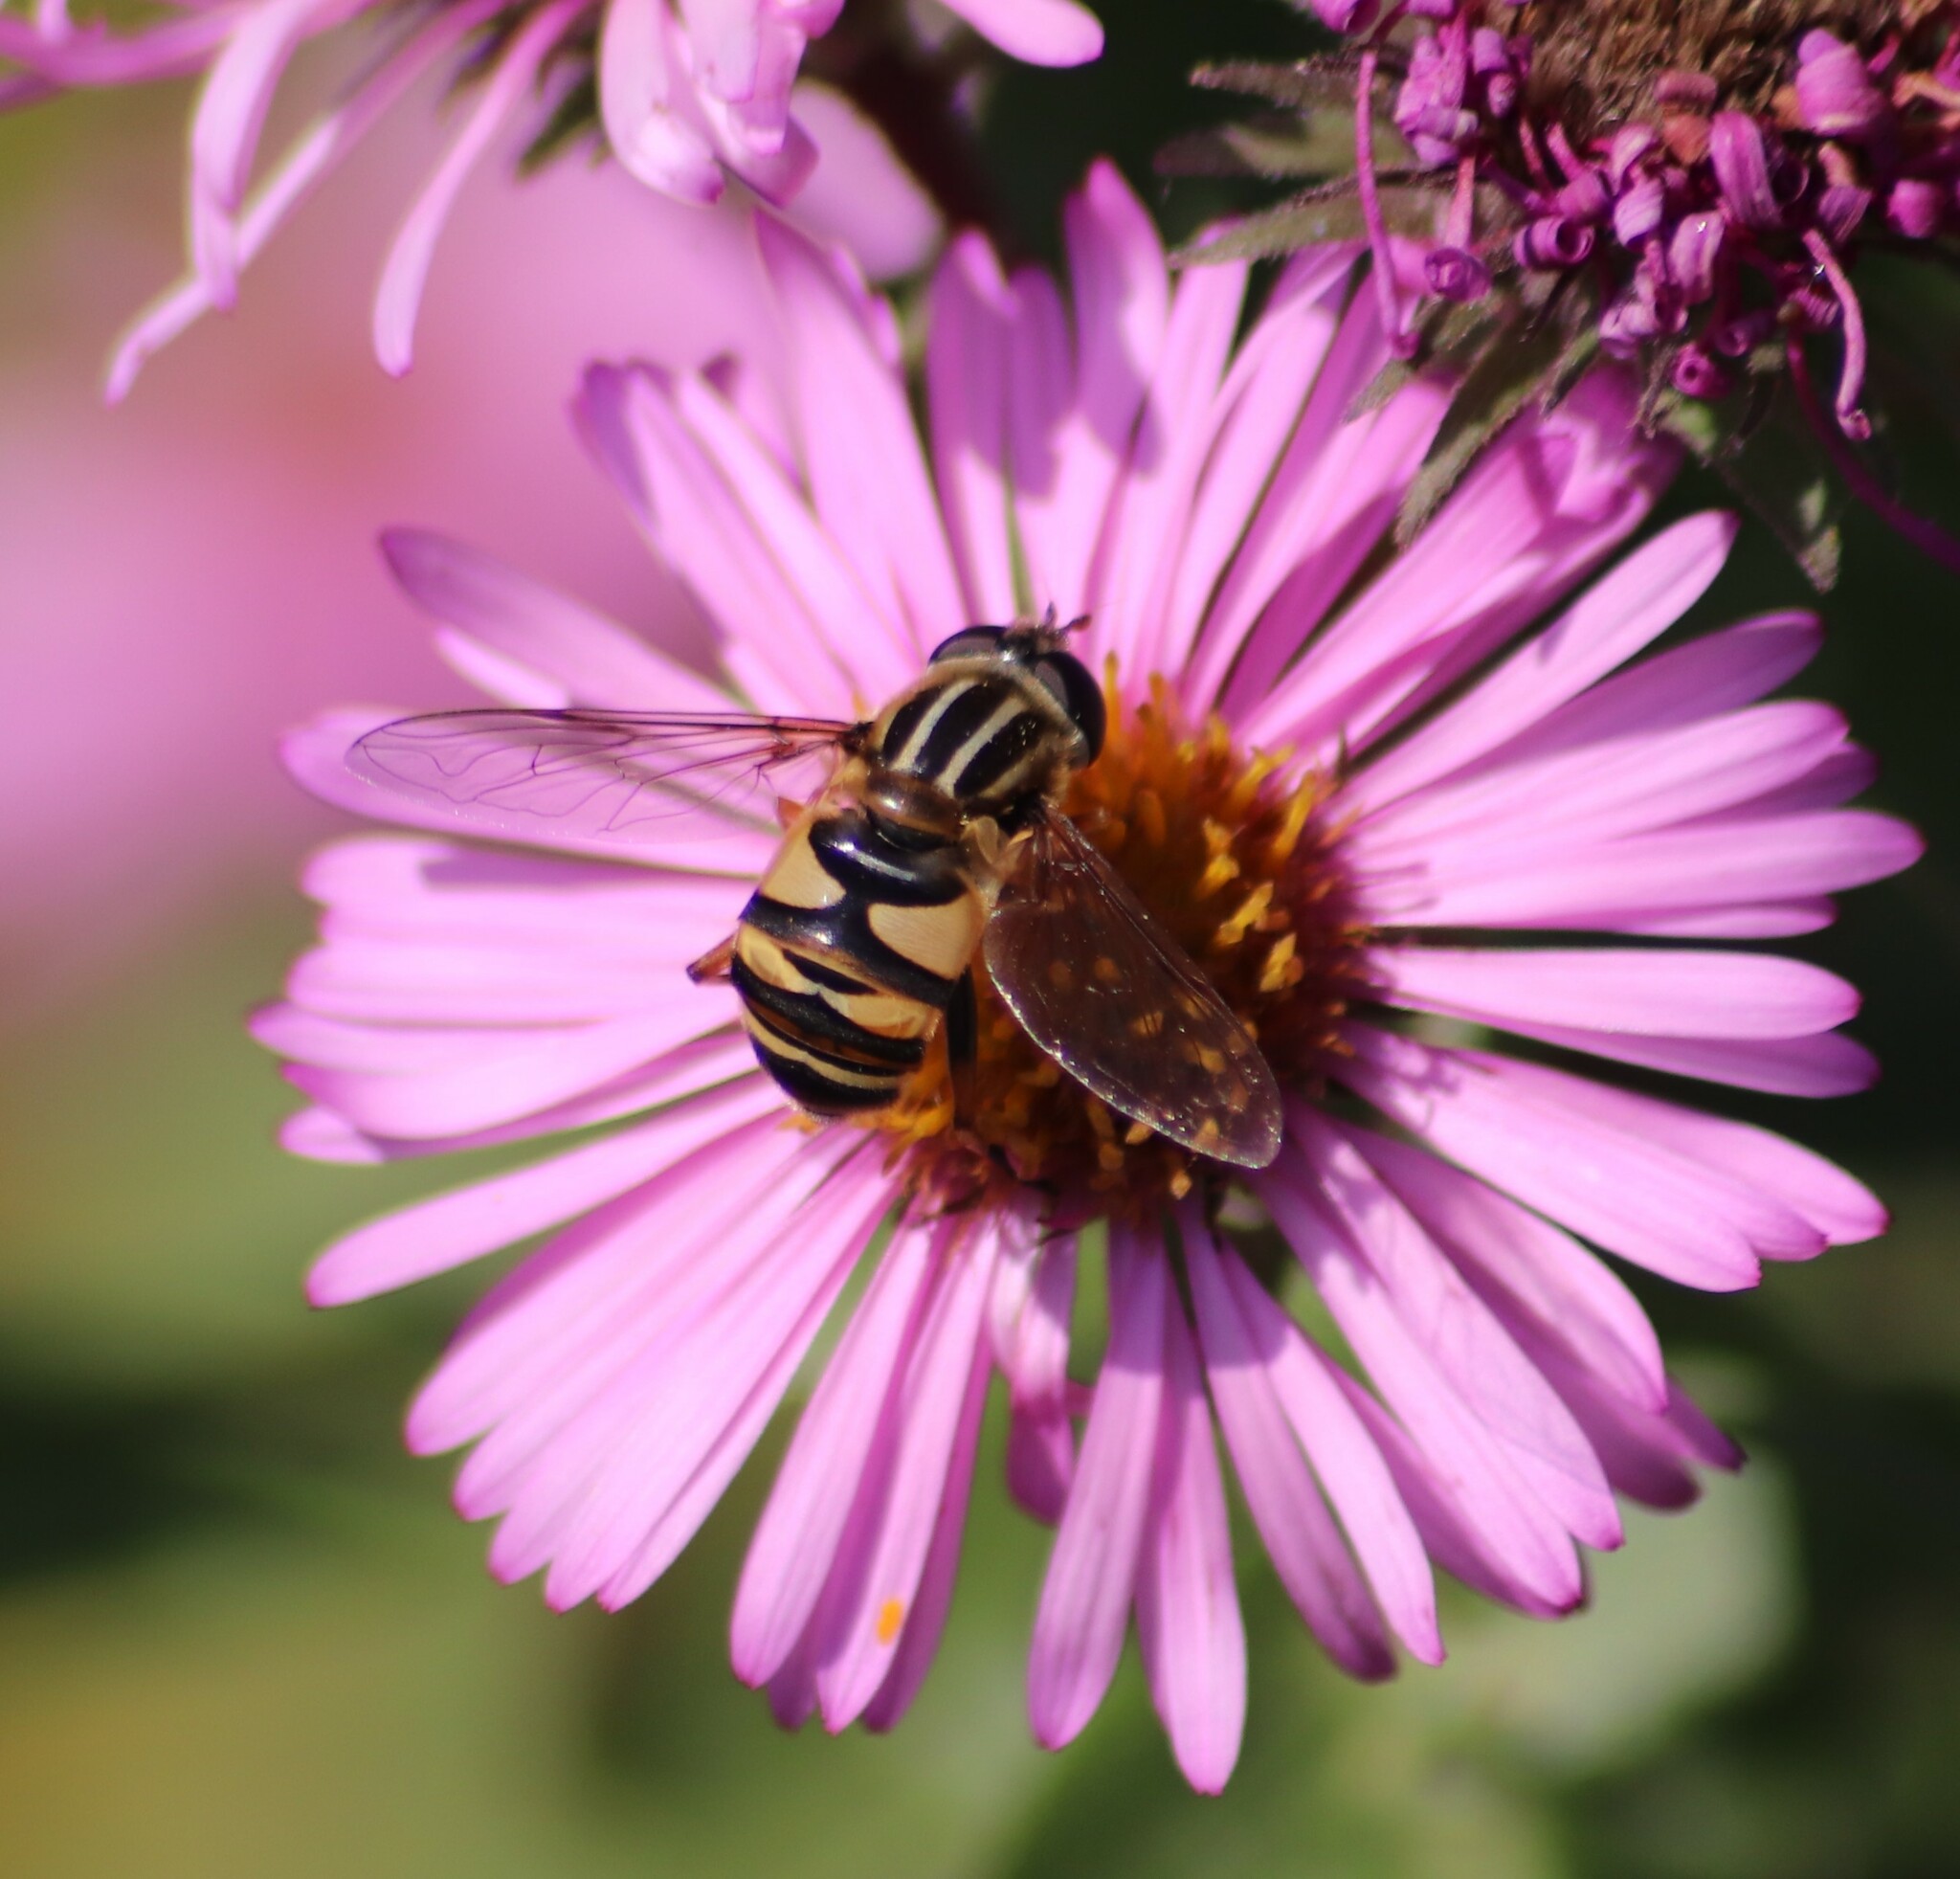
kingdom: Animalia
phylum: Arthropoda
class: Insecta
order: Diptera
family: Syrphidae
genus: Helophilus
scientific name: Helophilus fasciatus
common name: Narrow-headed marsh fly
